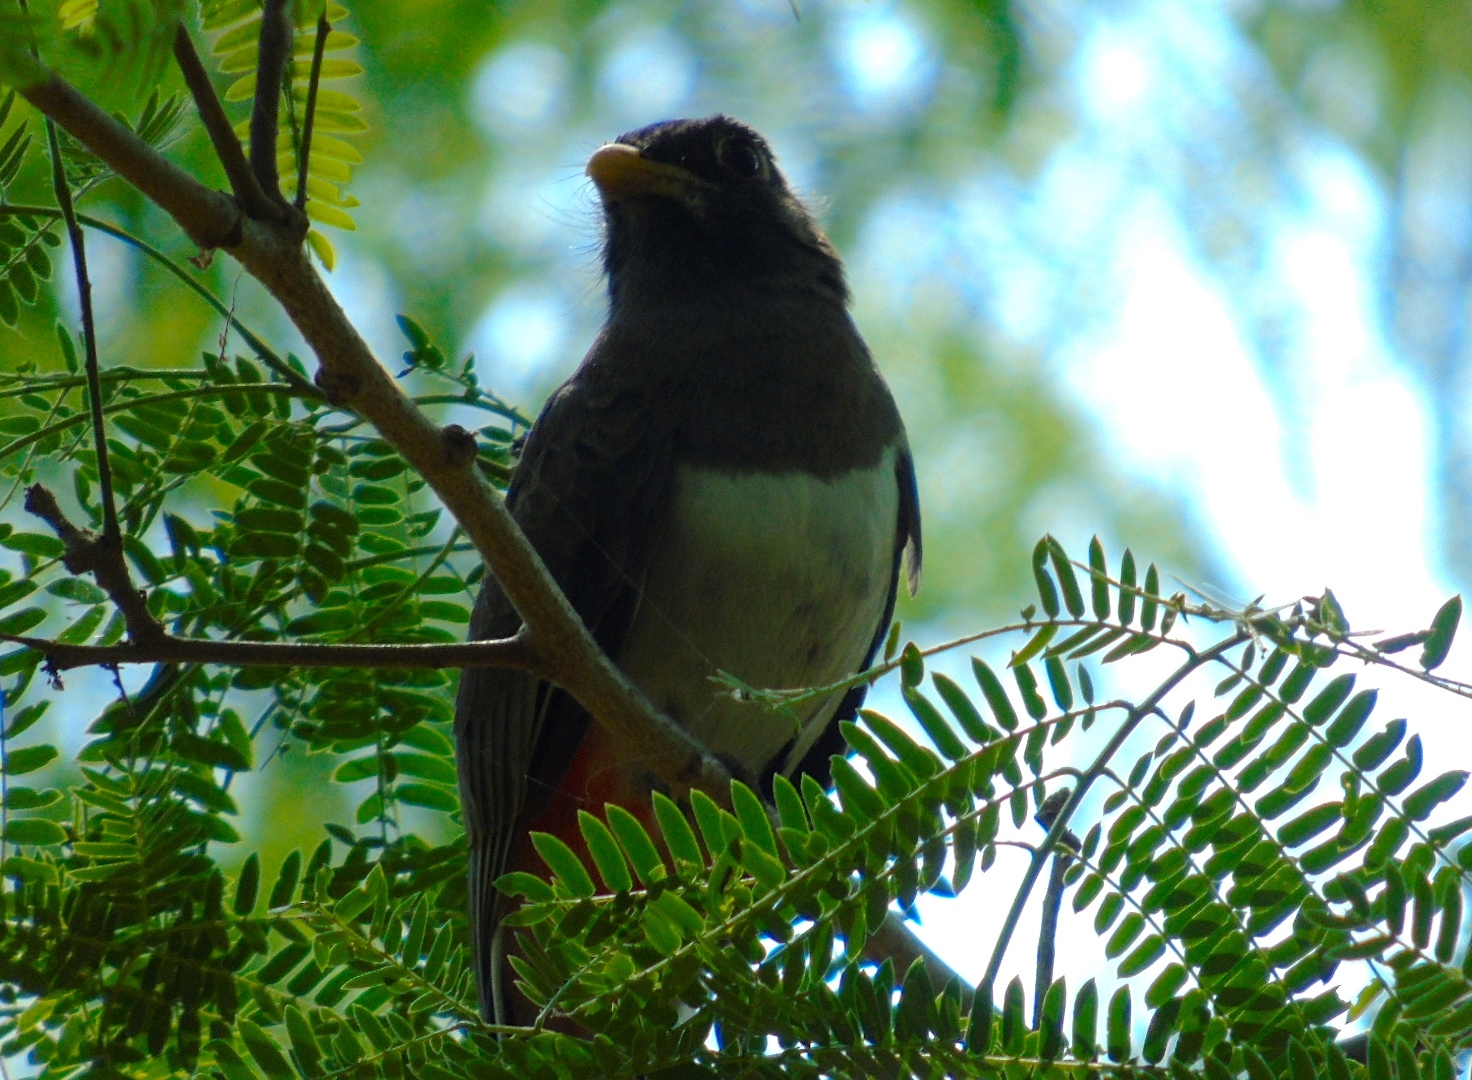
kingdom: Animalia
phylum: Chordata
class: Aves
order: Trogoniformes
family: Trogonidae
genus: Trogon
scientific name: Trogon elegans
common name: Elegant trogon
